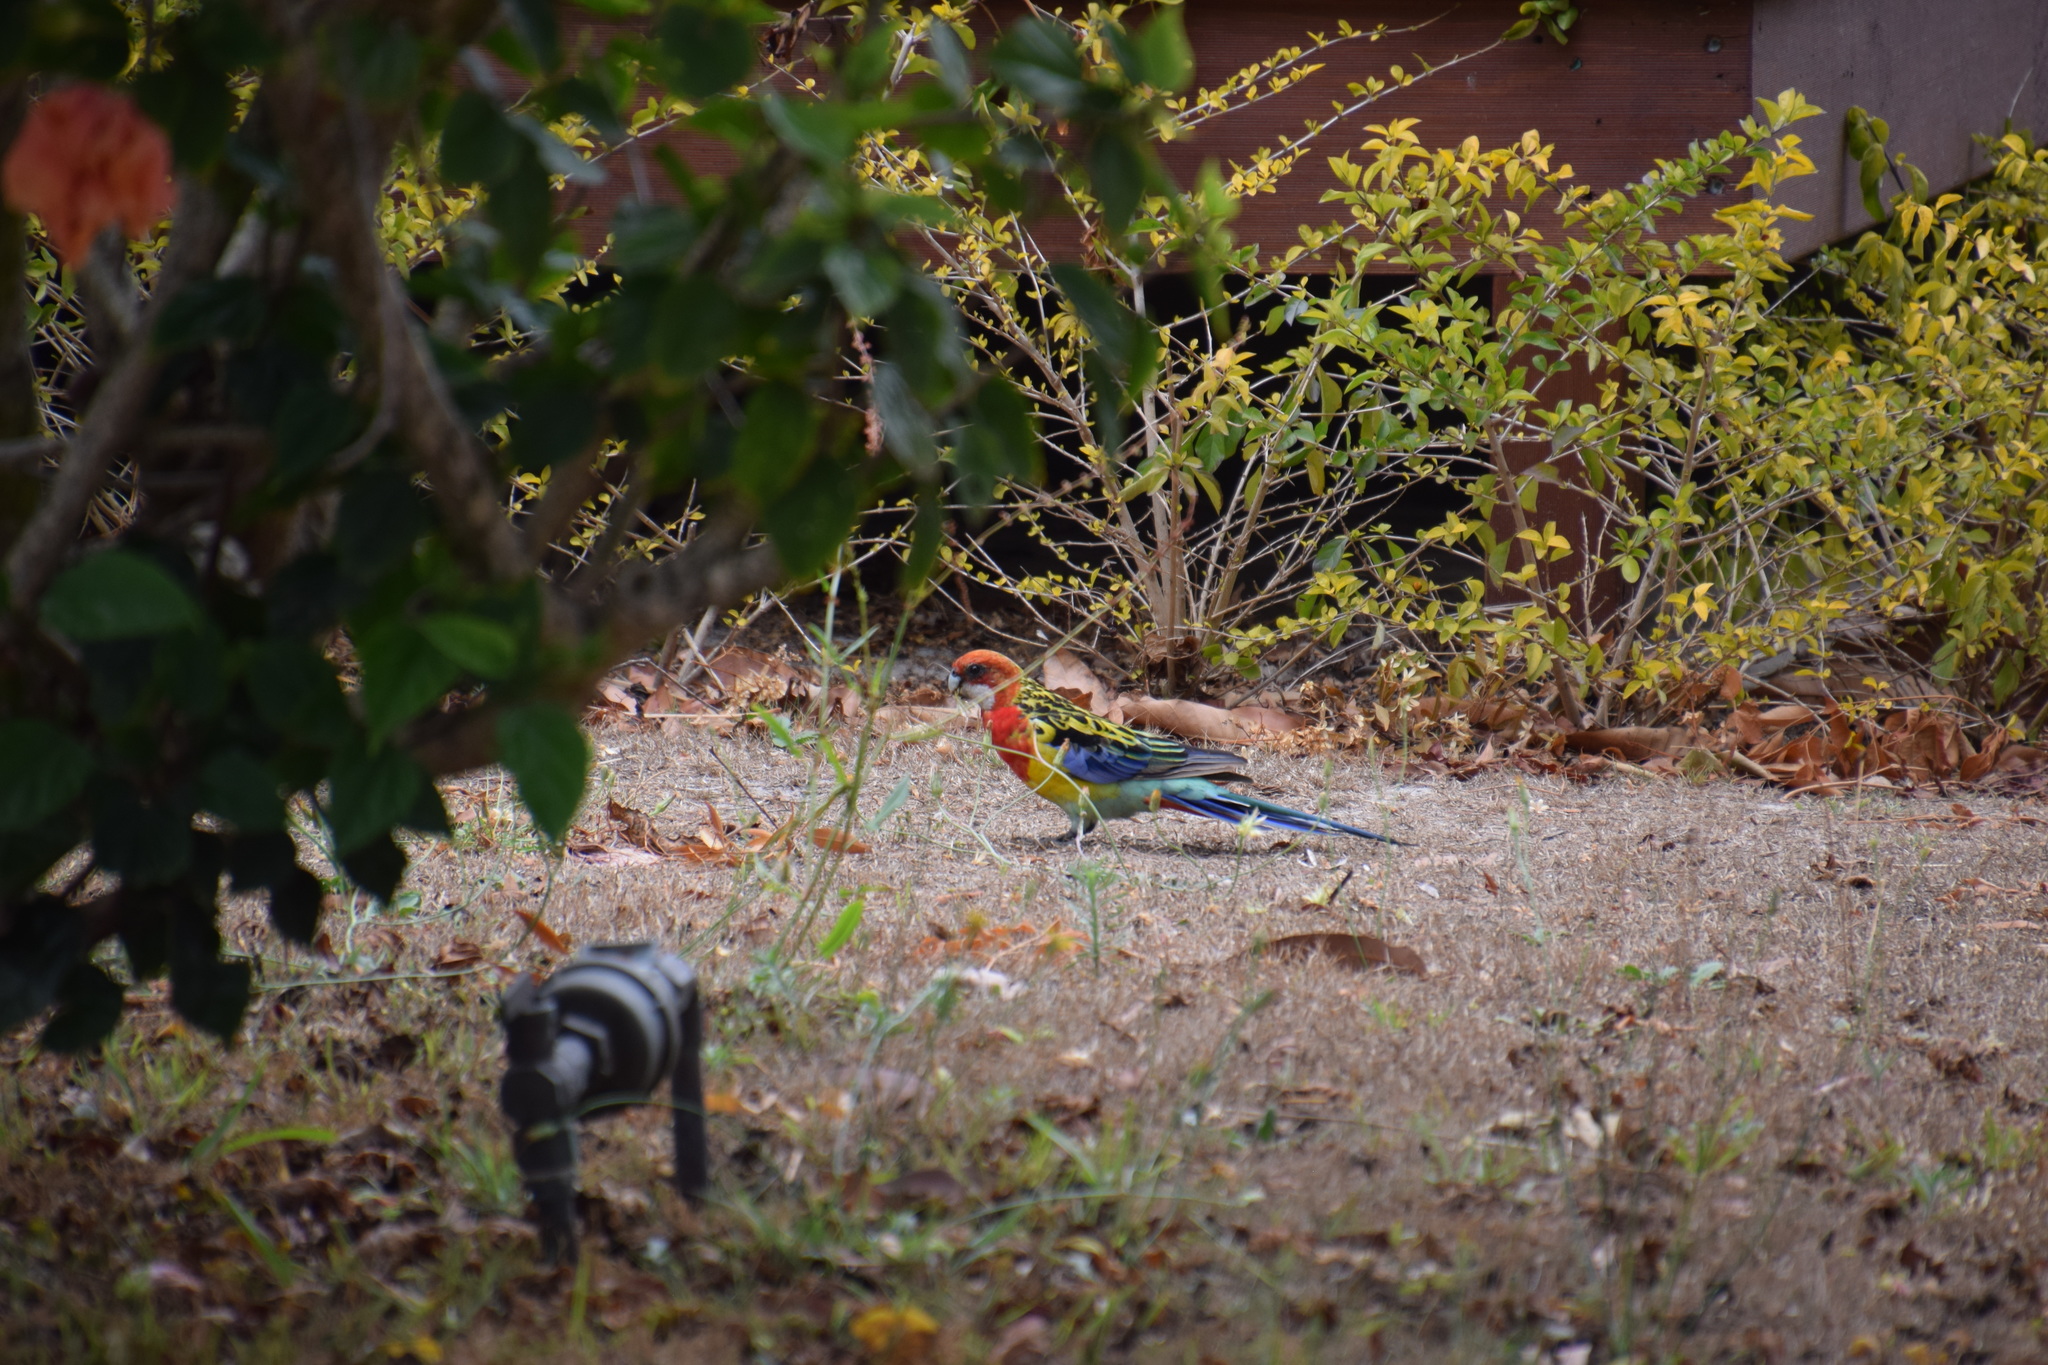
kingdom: Animalia
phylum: Chordata
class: Aves
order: Psittaciformes
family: Psittacidae
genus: Platycercus
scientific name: Platycercus eximius
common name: Eastern rosella
